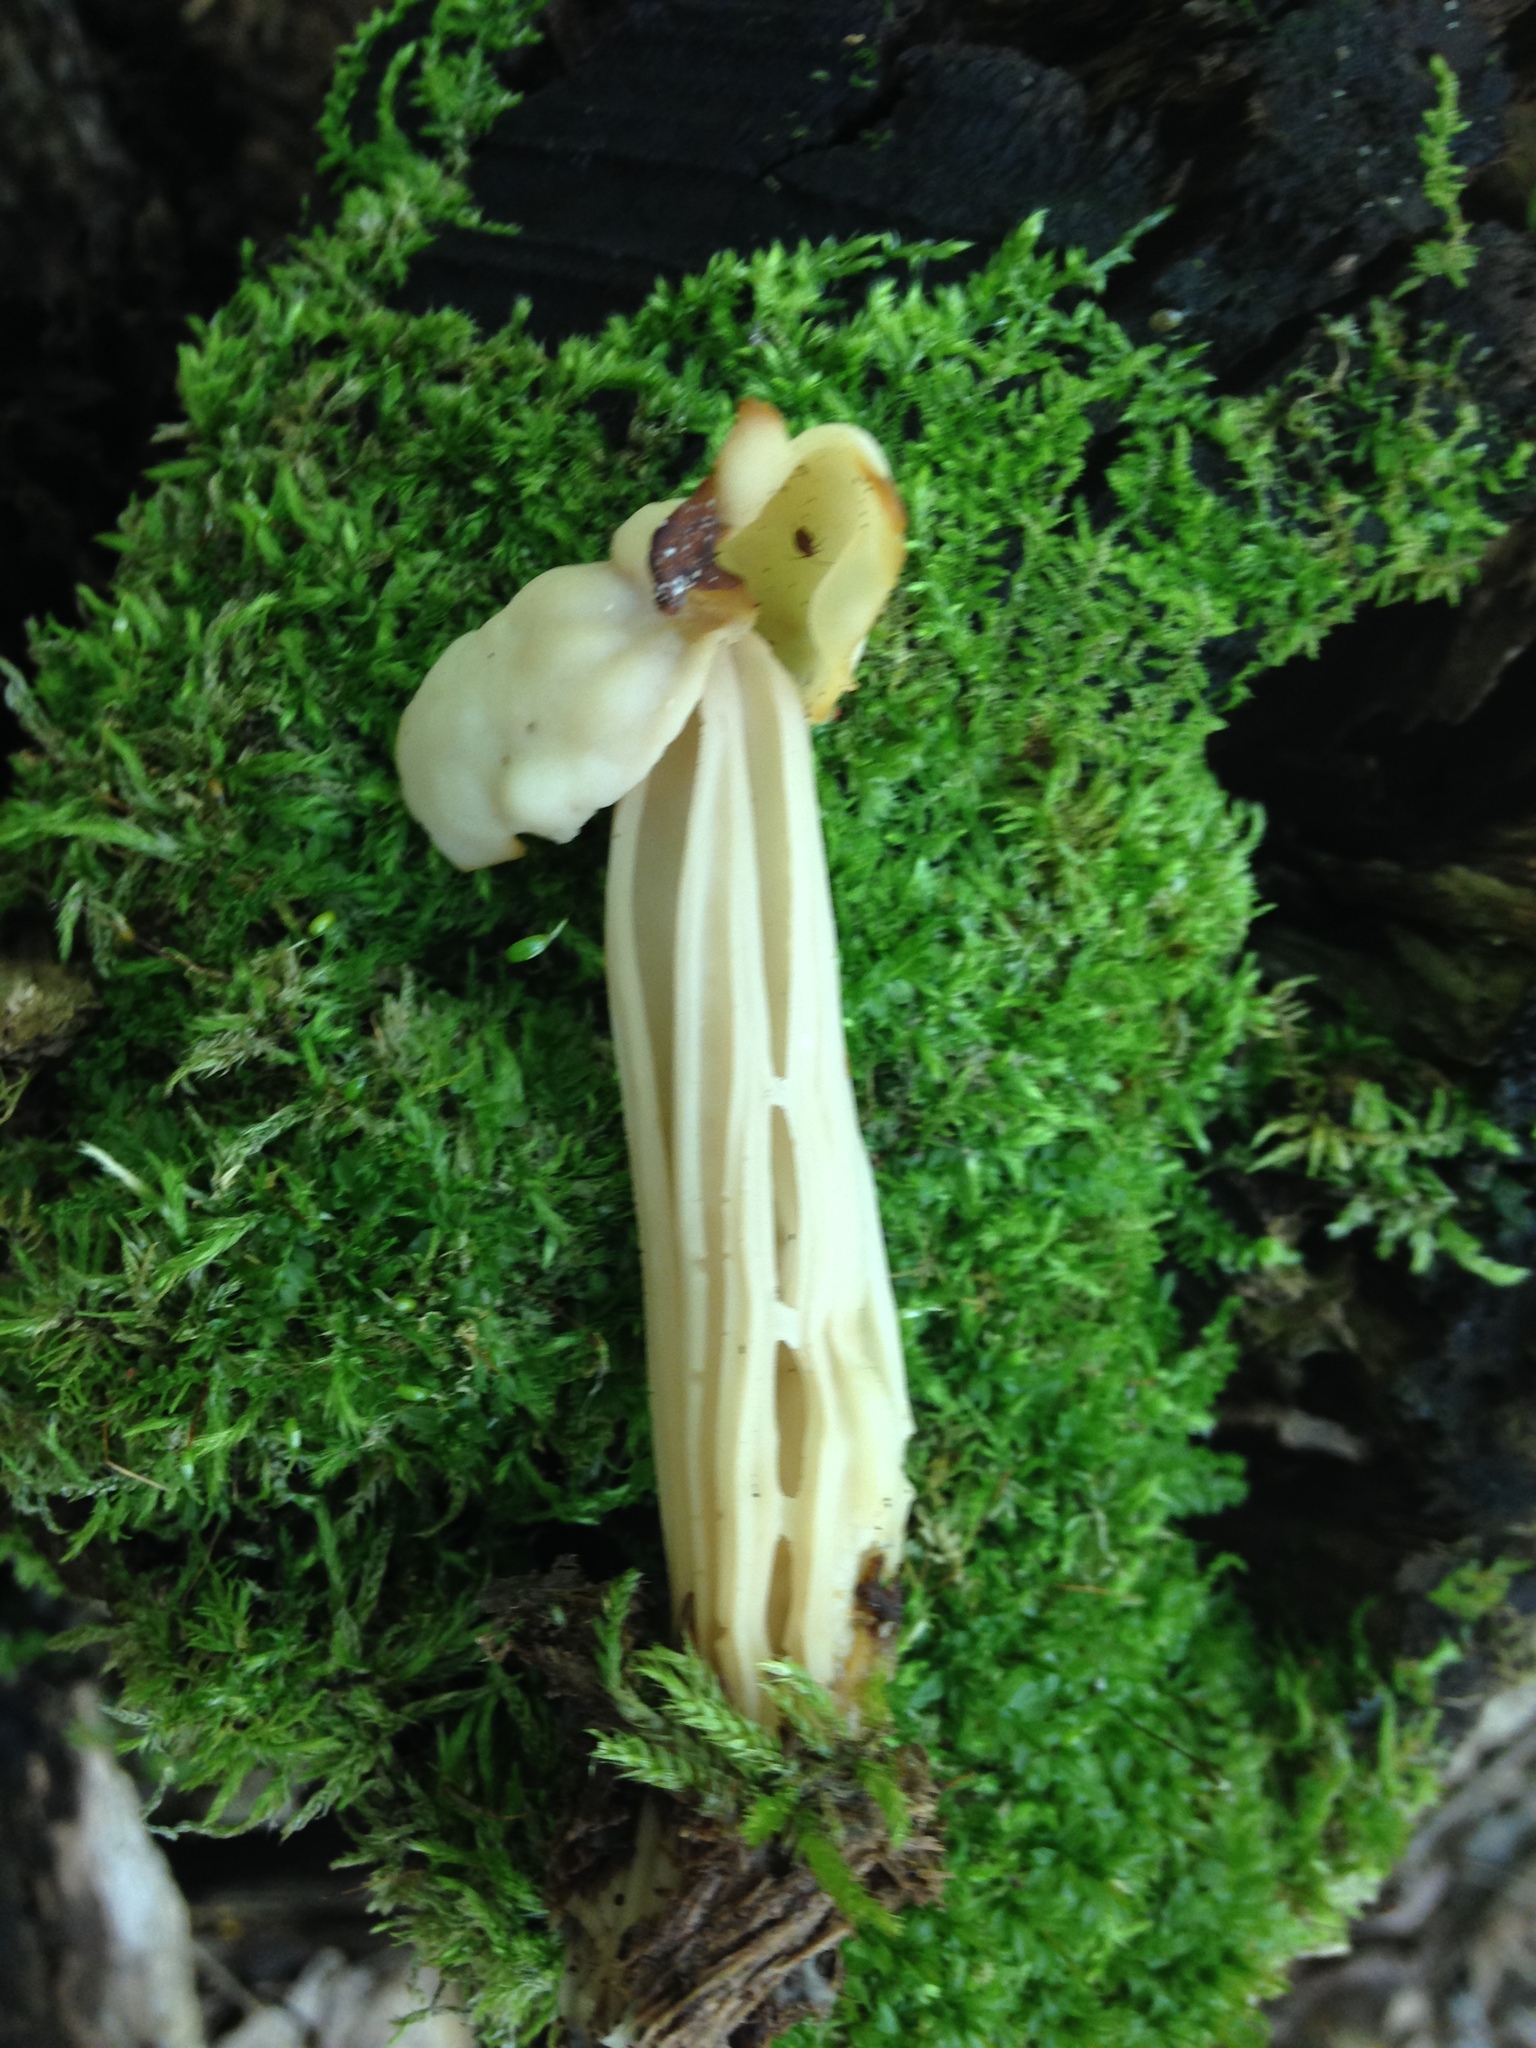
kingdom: Fungi
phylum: Ascomycota
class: Pezizomycetes
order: Pezizales
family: Helvellaceae
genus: Helvella
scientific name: Helvella crispa
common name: White saddle
